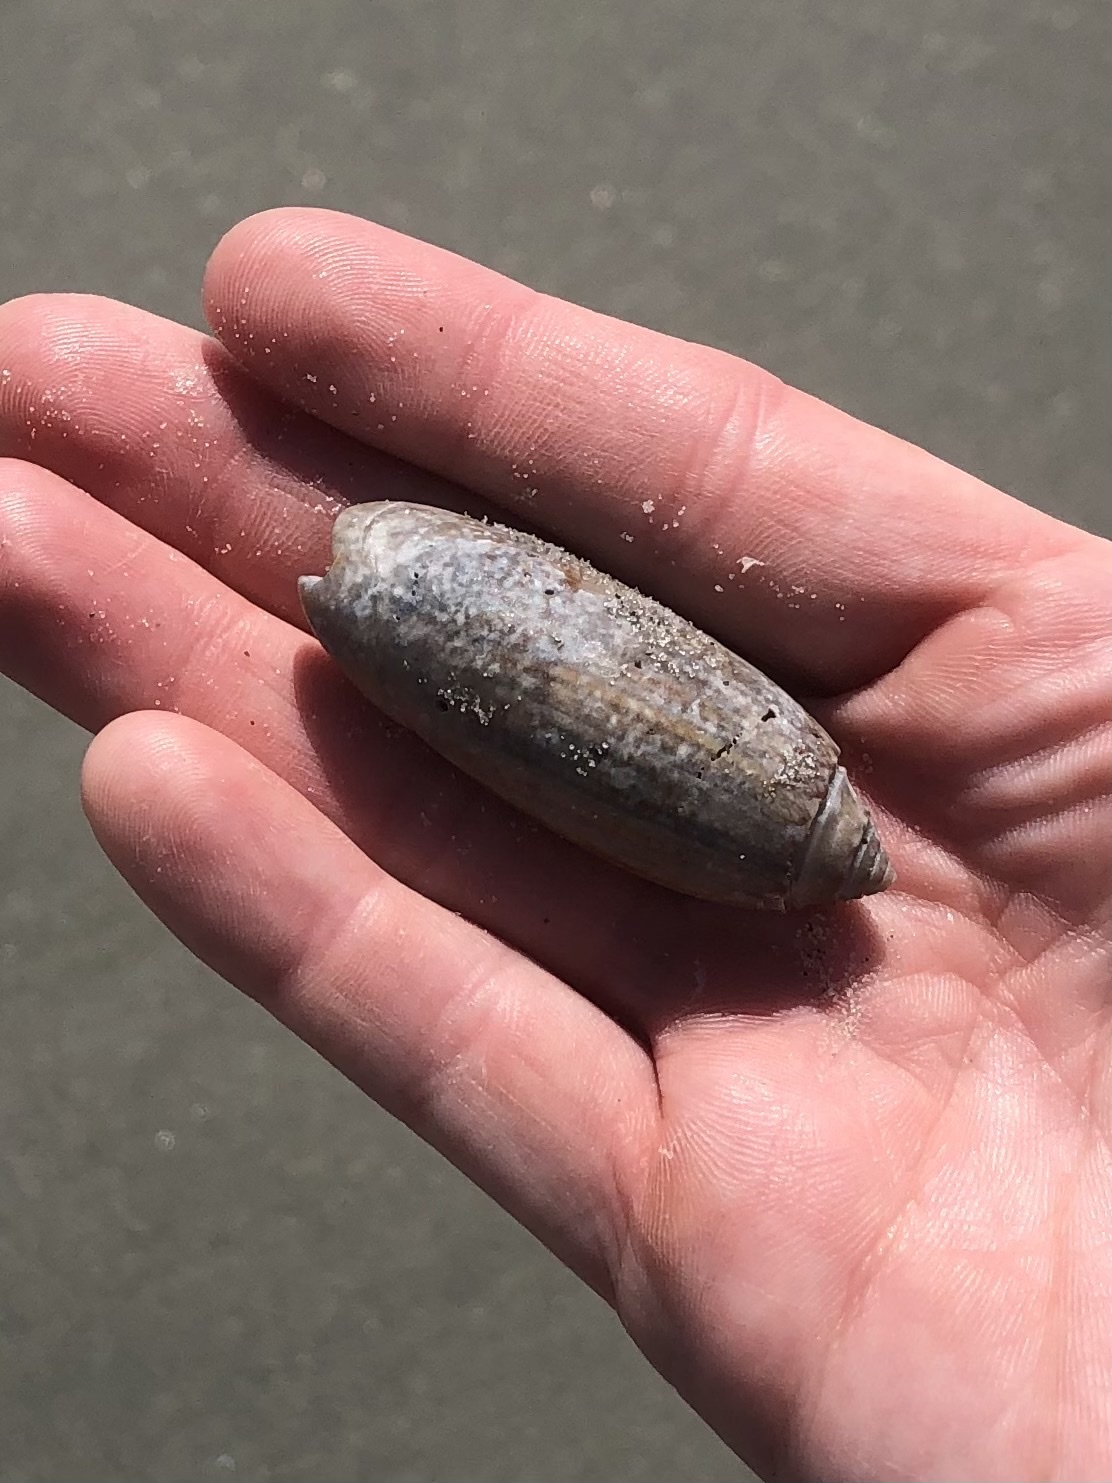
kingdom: Animalia
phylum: Mollusca
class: Gastropoda
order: Neogastropoda
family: Olividae
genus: Oliva
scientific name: Oliva sayana
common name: Lettered olive
